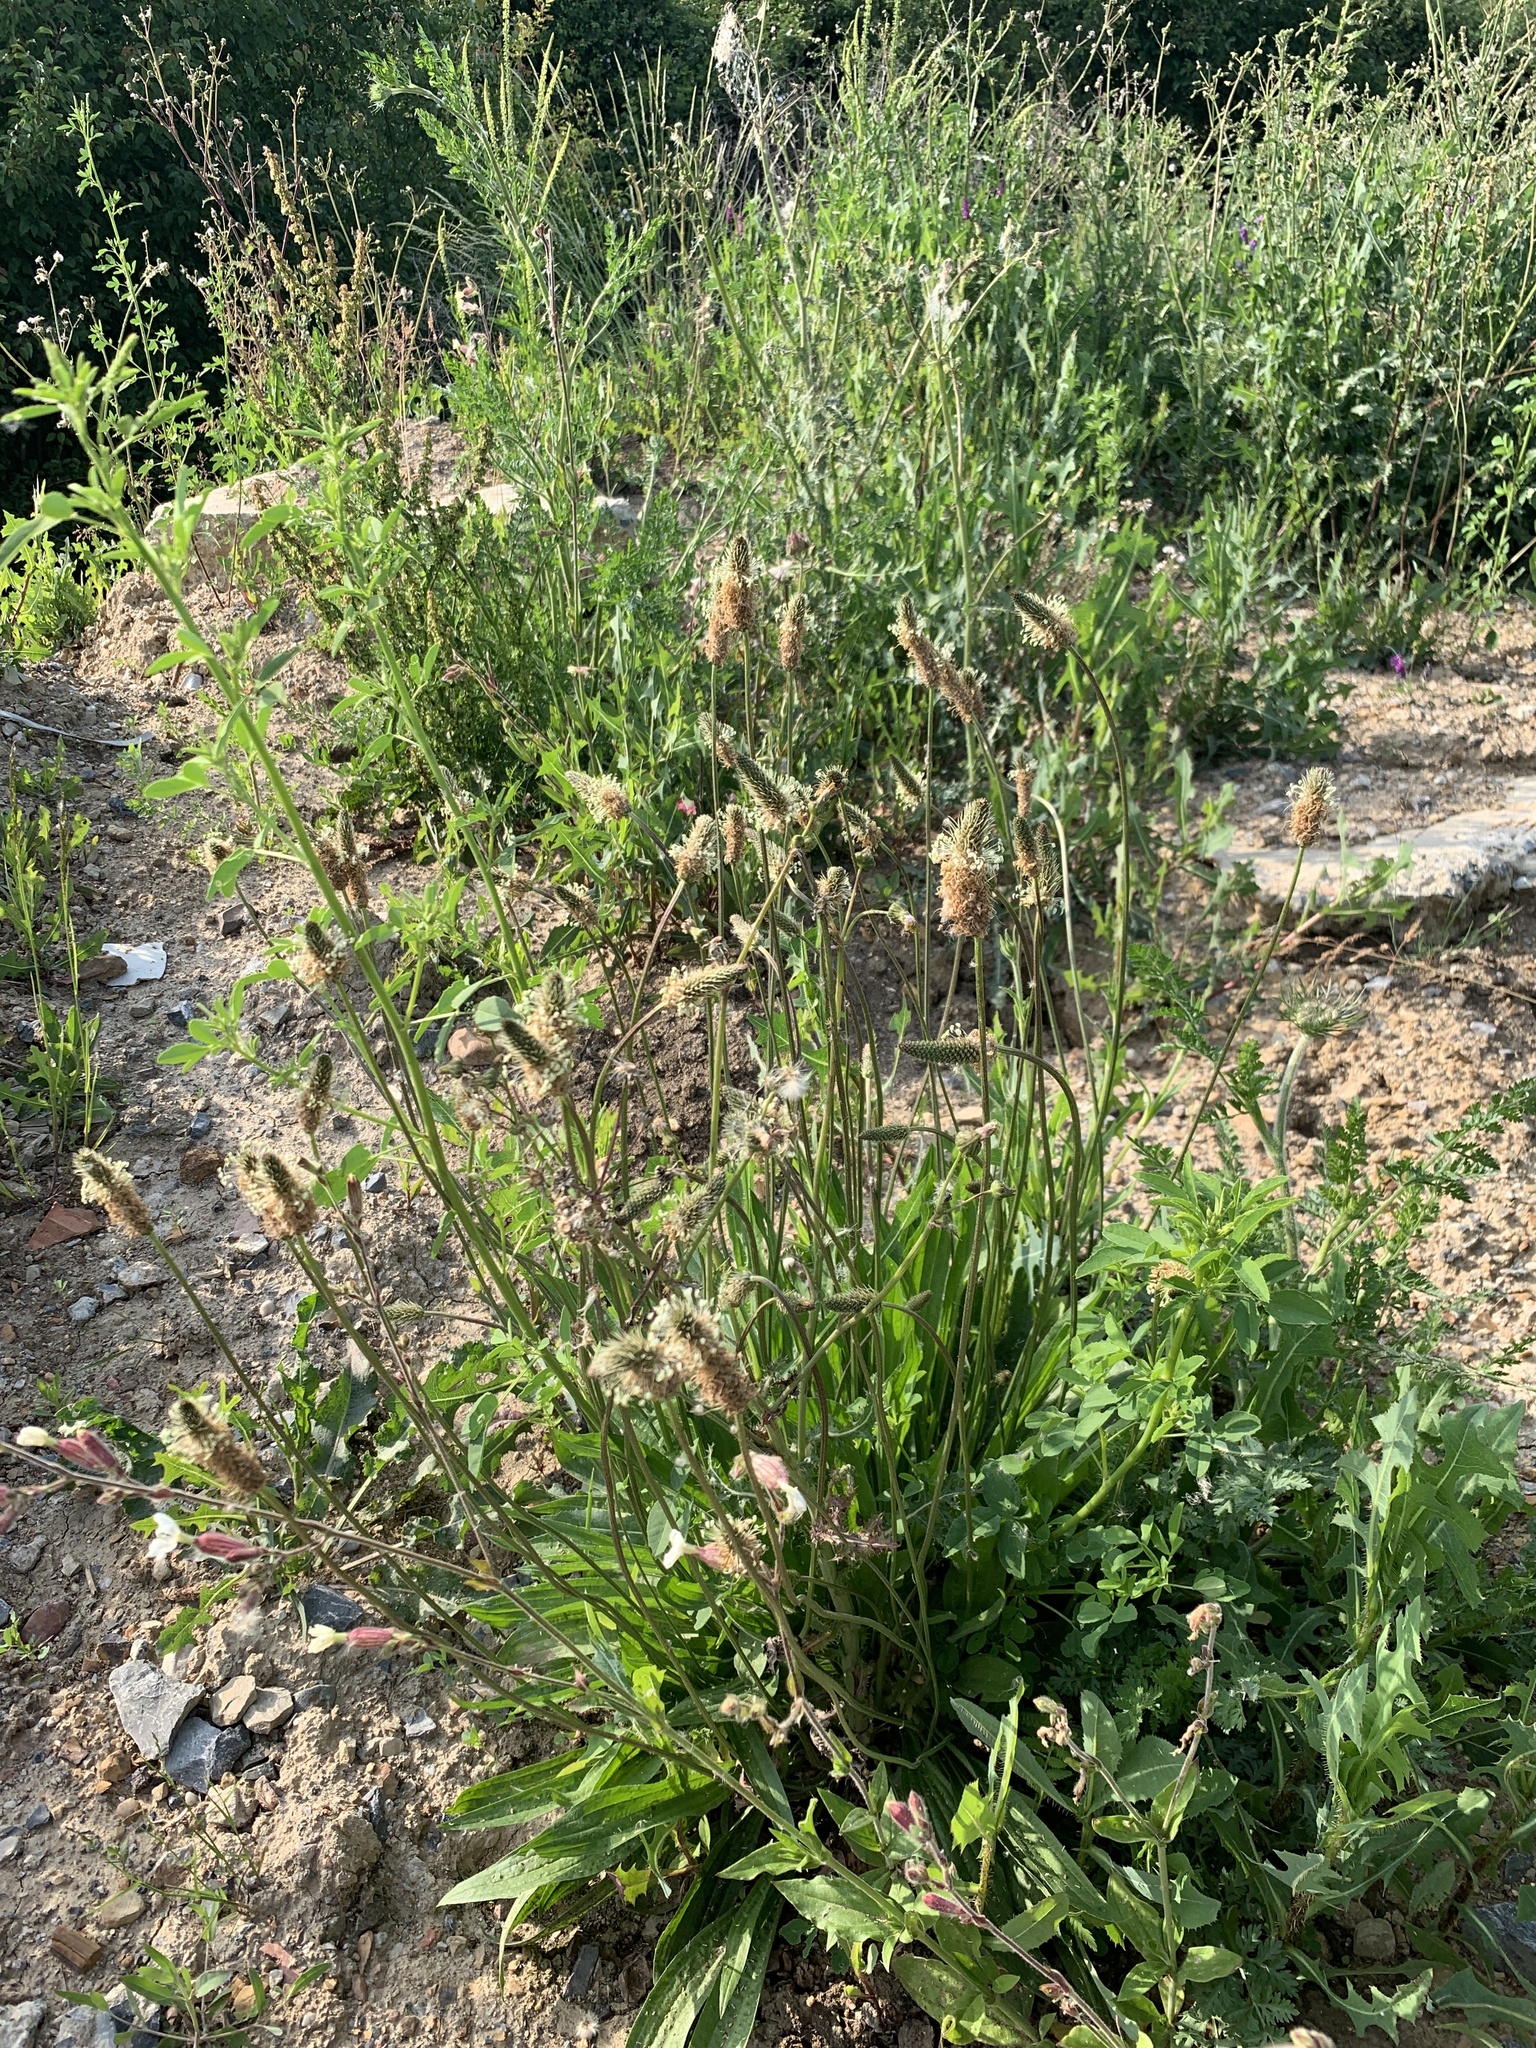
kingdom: Plantae
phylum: Tracheophyta
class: Magnoliopsida
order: Lamiales
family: Plantaginaceae
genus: Plantago
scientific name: Plantago lanceolata
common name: Ribwort plantain
